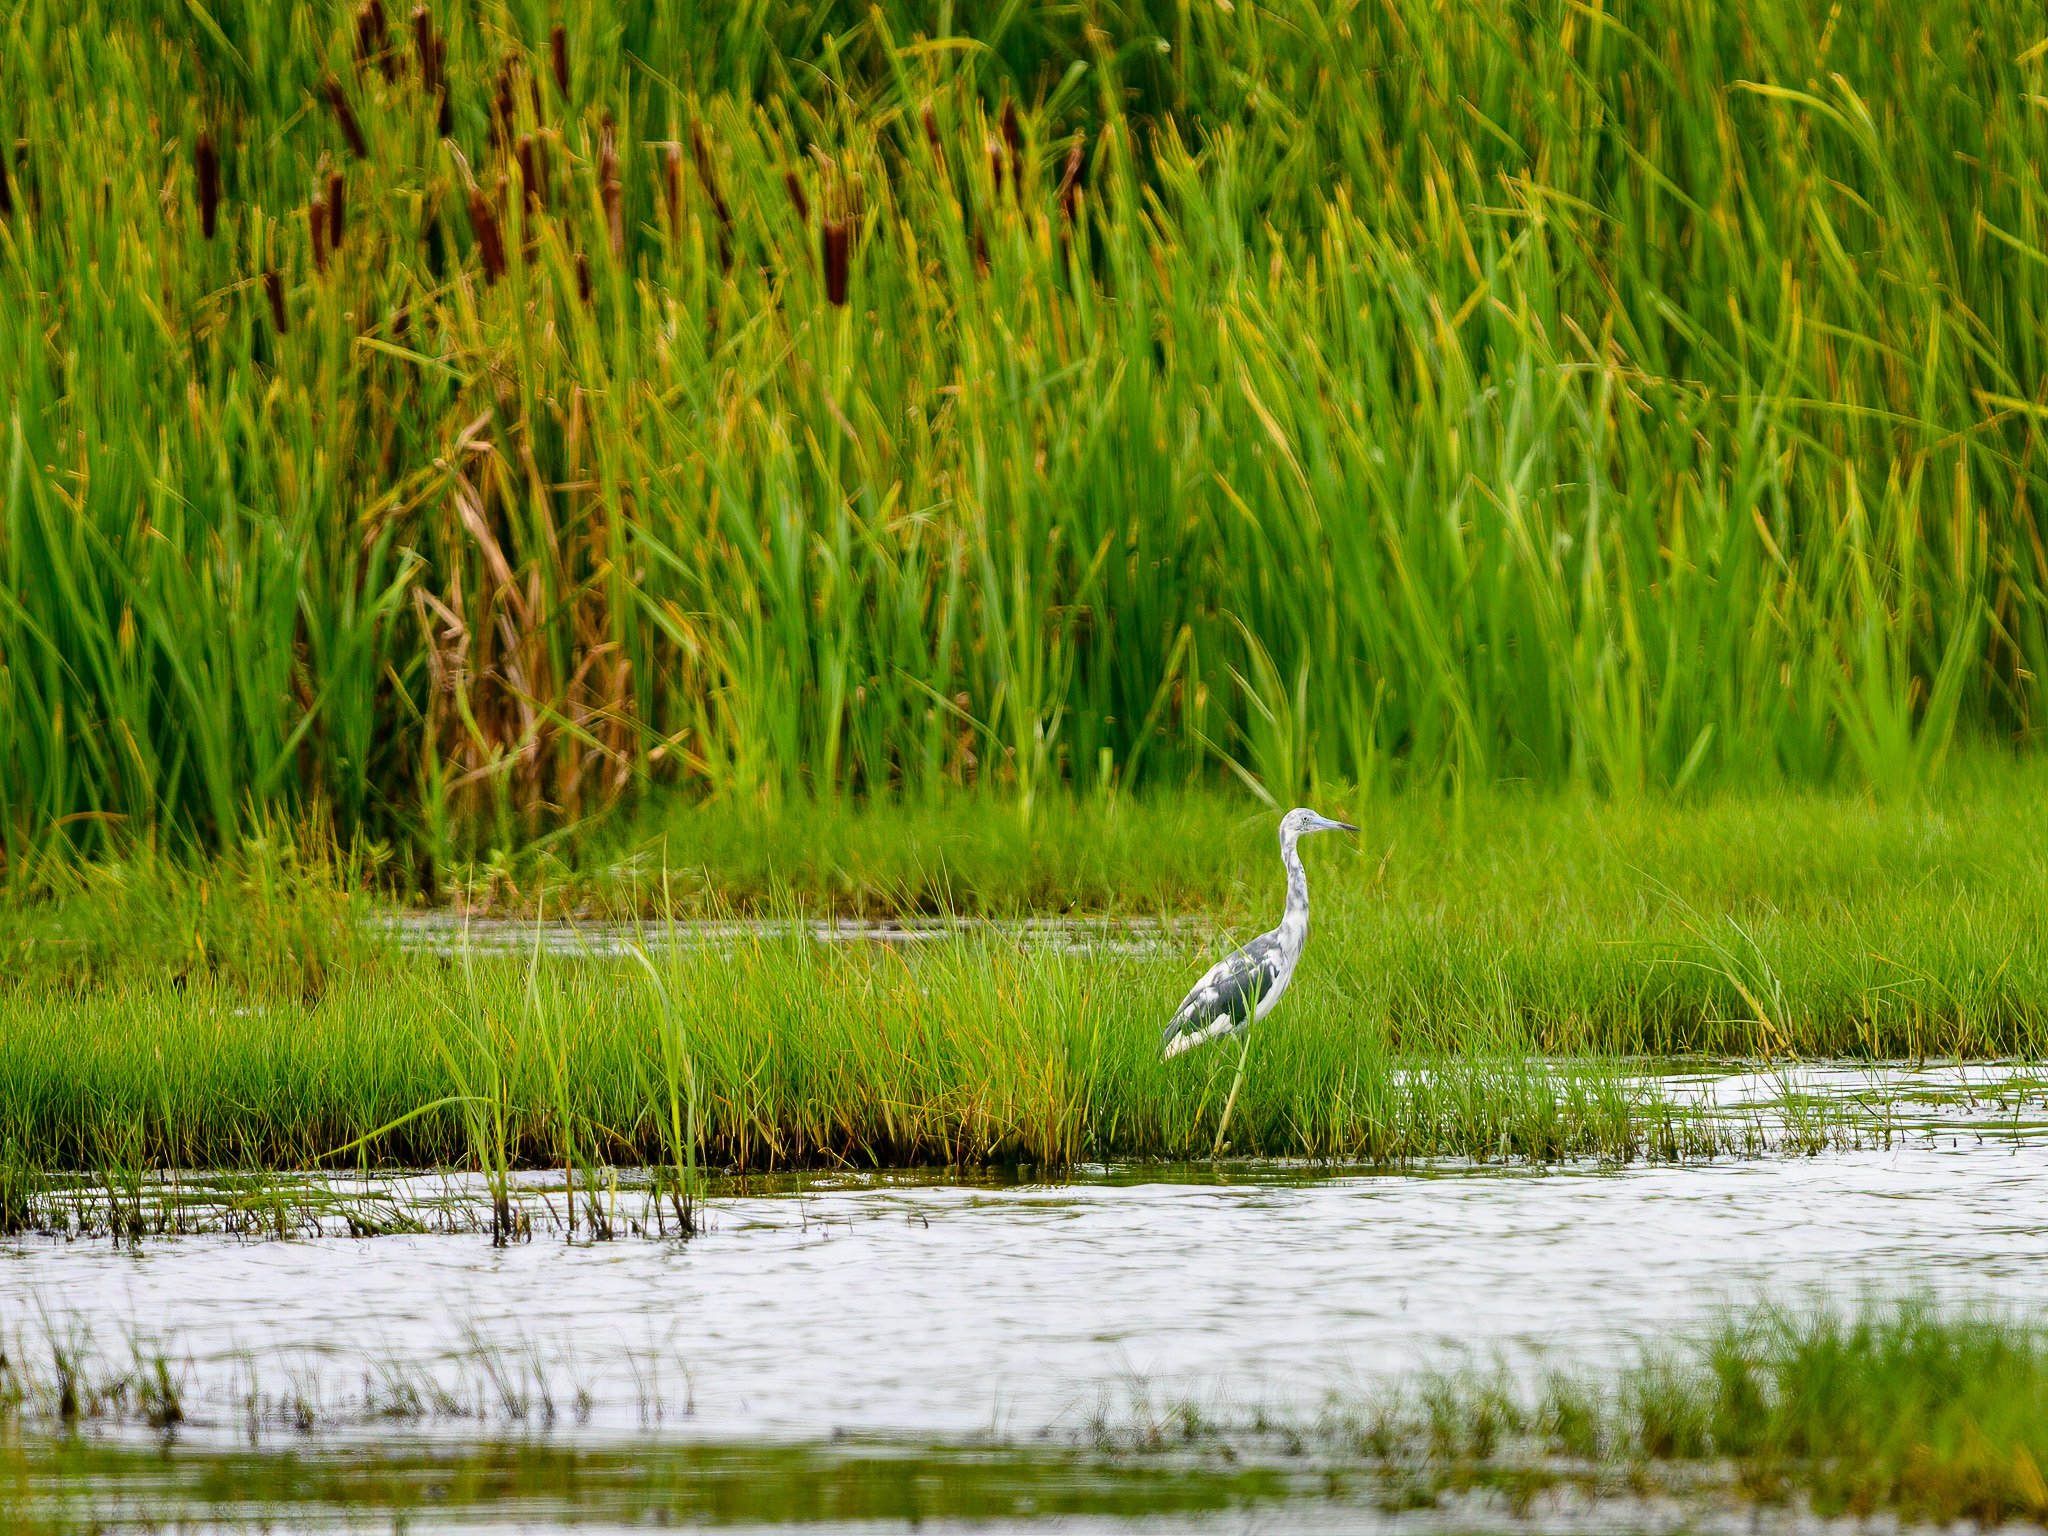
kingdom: Animalia
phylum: Chordata
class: Aves
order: Pelecaniformes
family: Ardeidae
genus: Egretta
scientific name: Egretta caerulea
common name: Little blue heron
